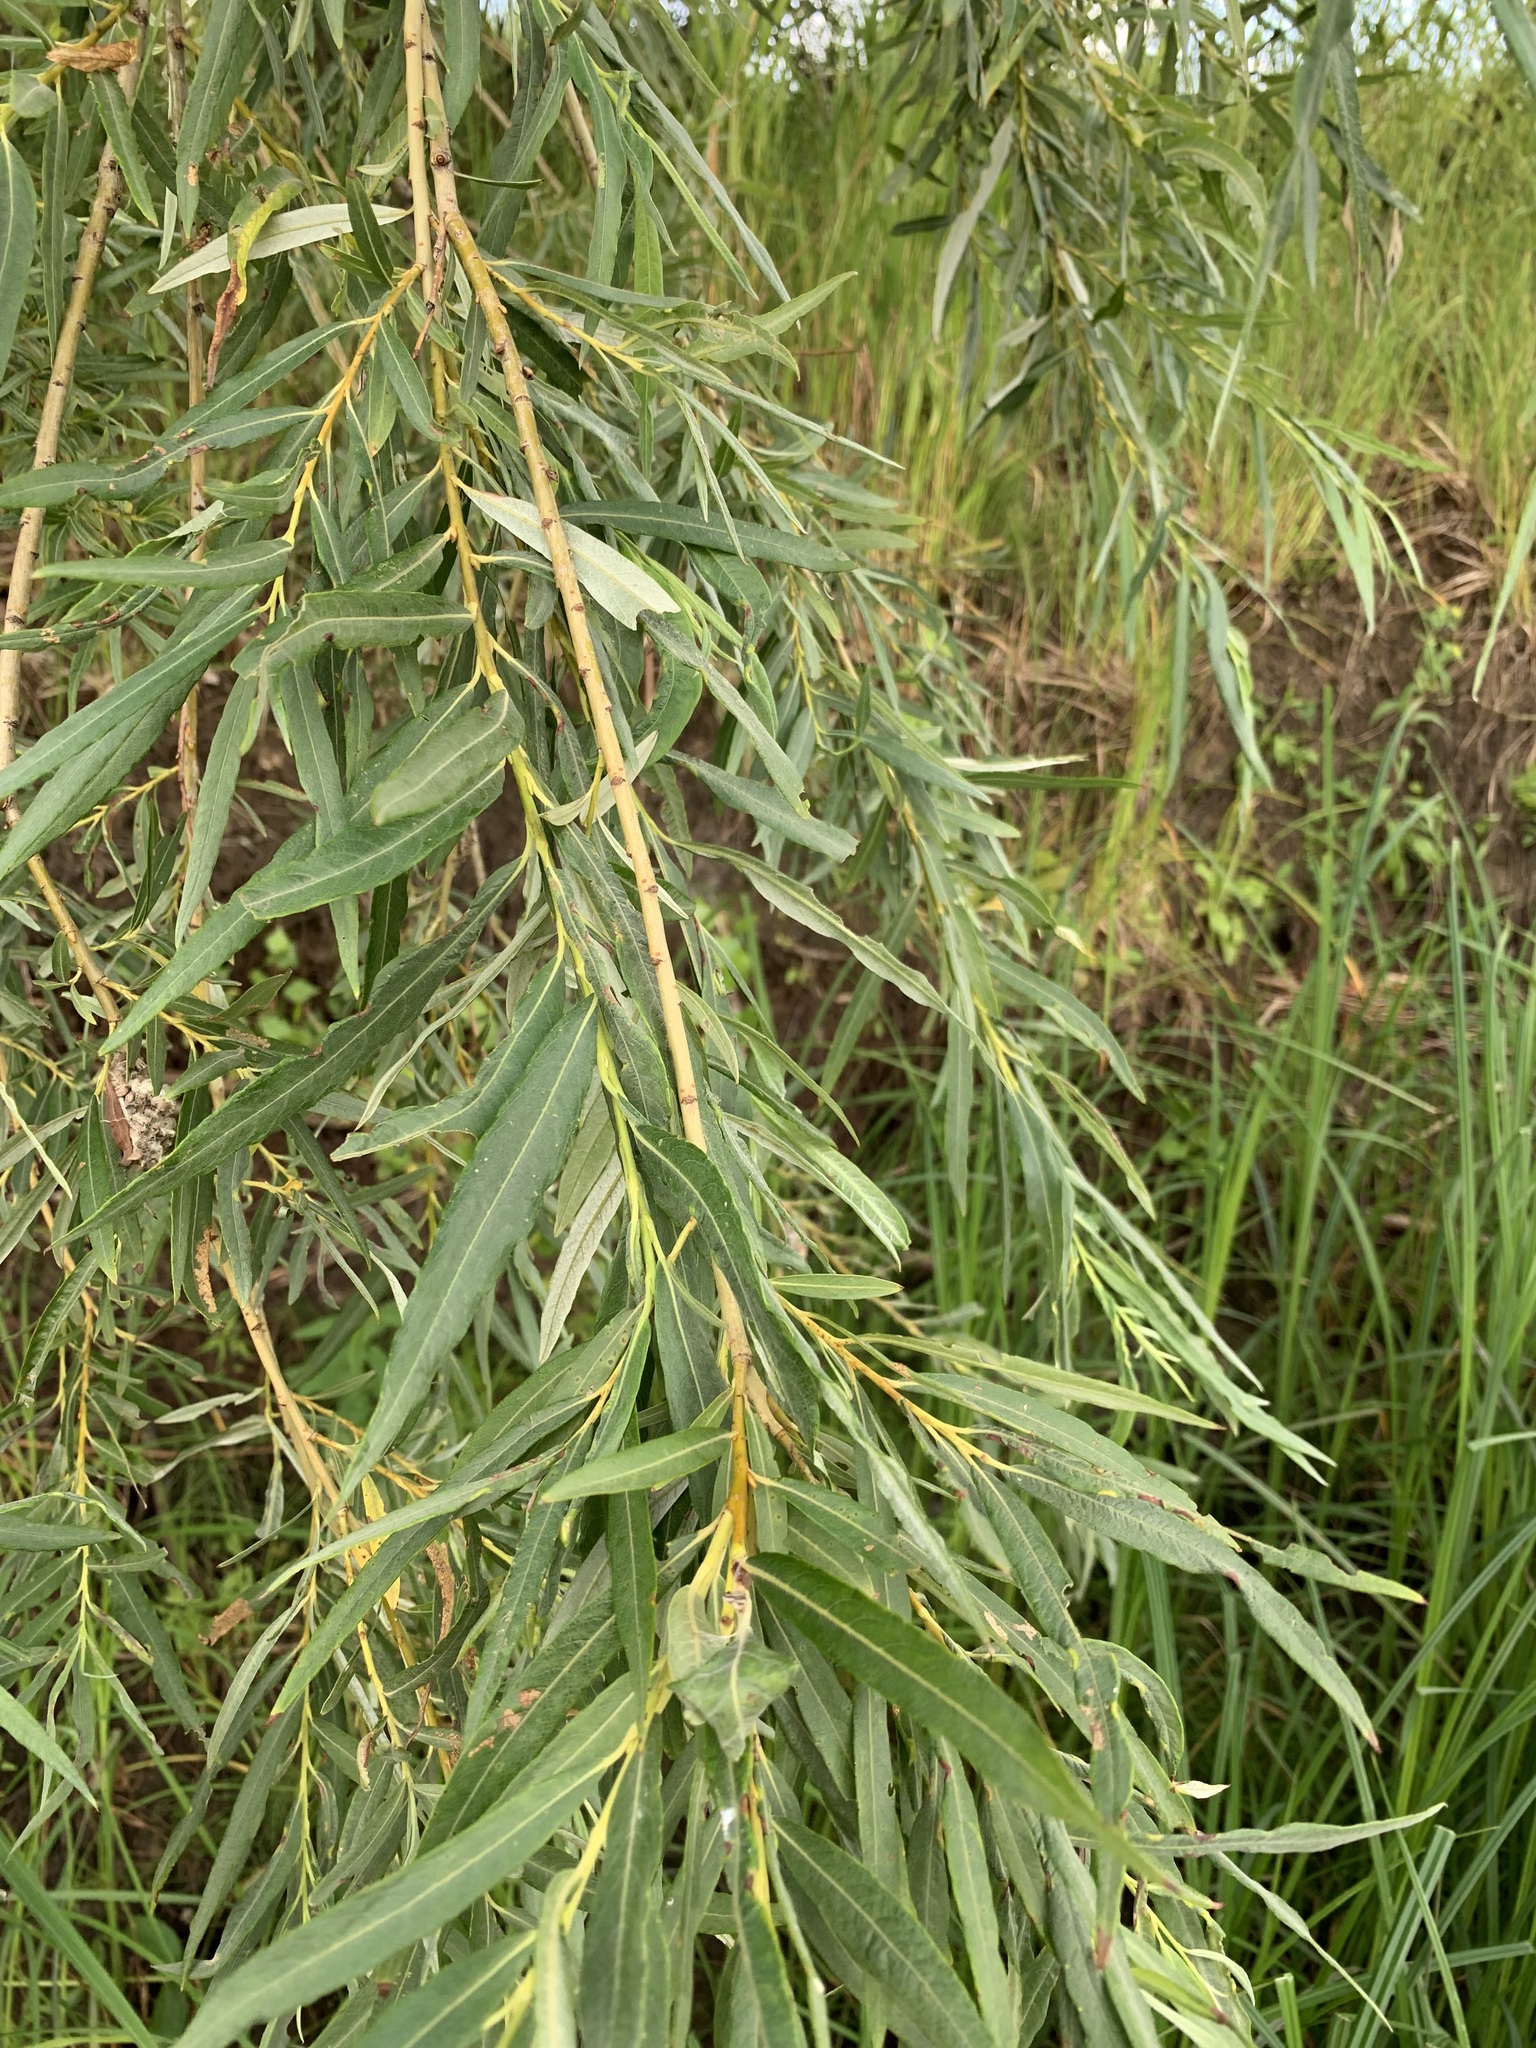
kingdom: Plantae
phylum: Tracheophyta
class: Magnoliopsida
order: Malpighiales
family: Salicaceae
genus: Salix
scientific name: Salix viminalis
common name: Osier
